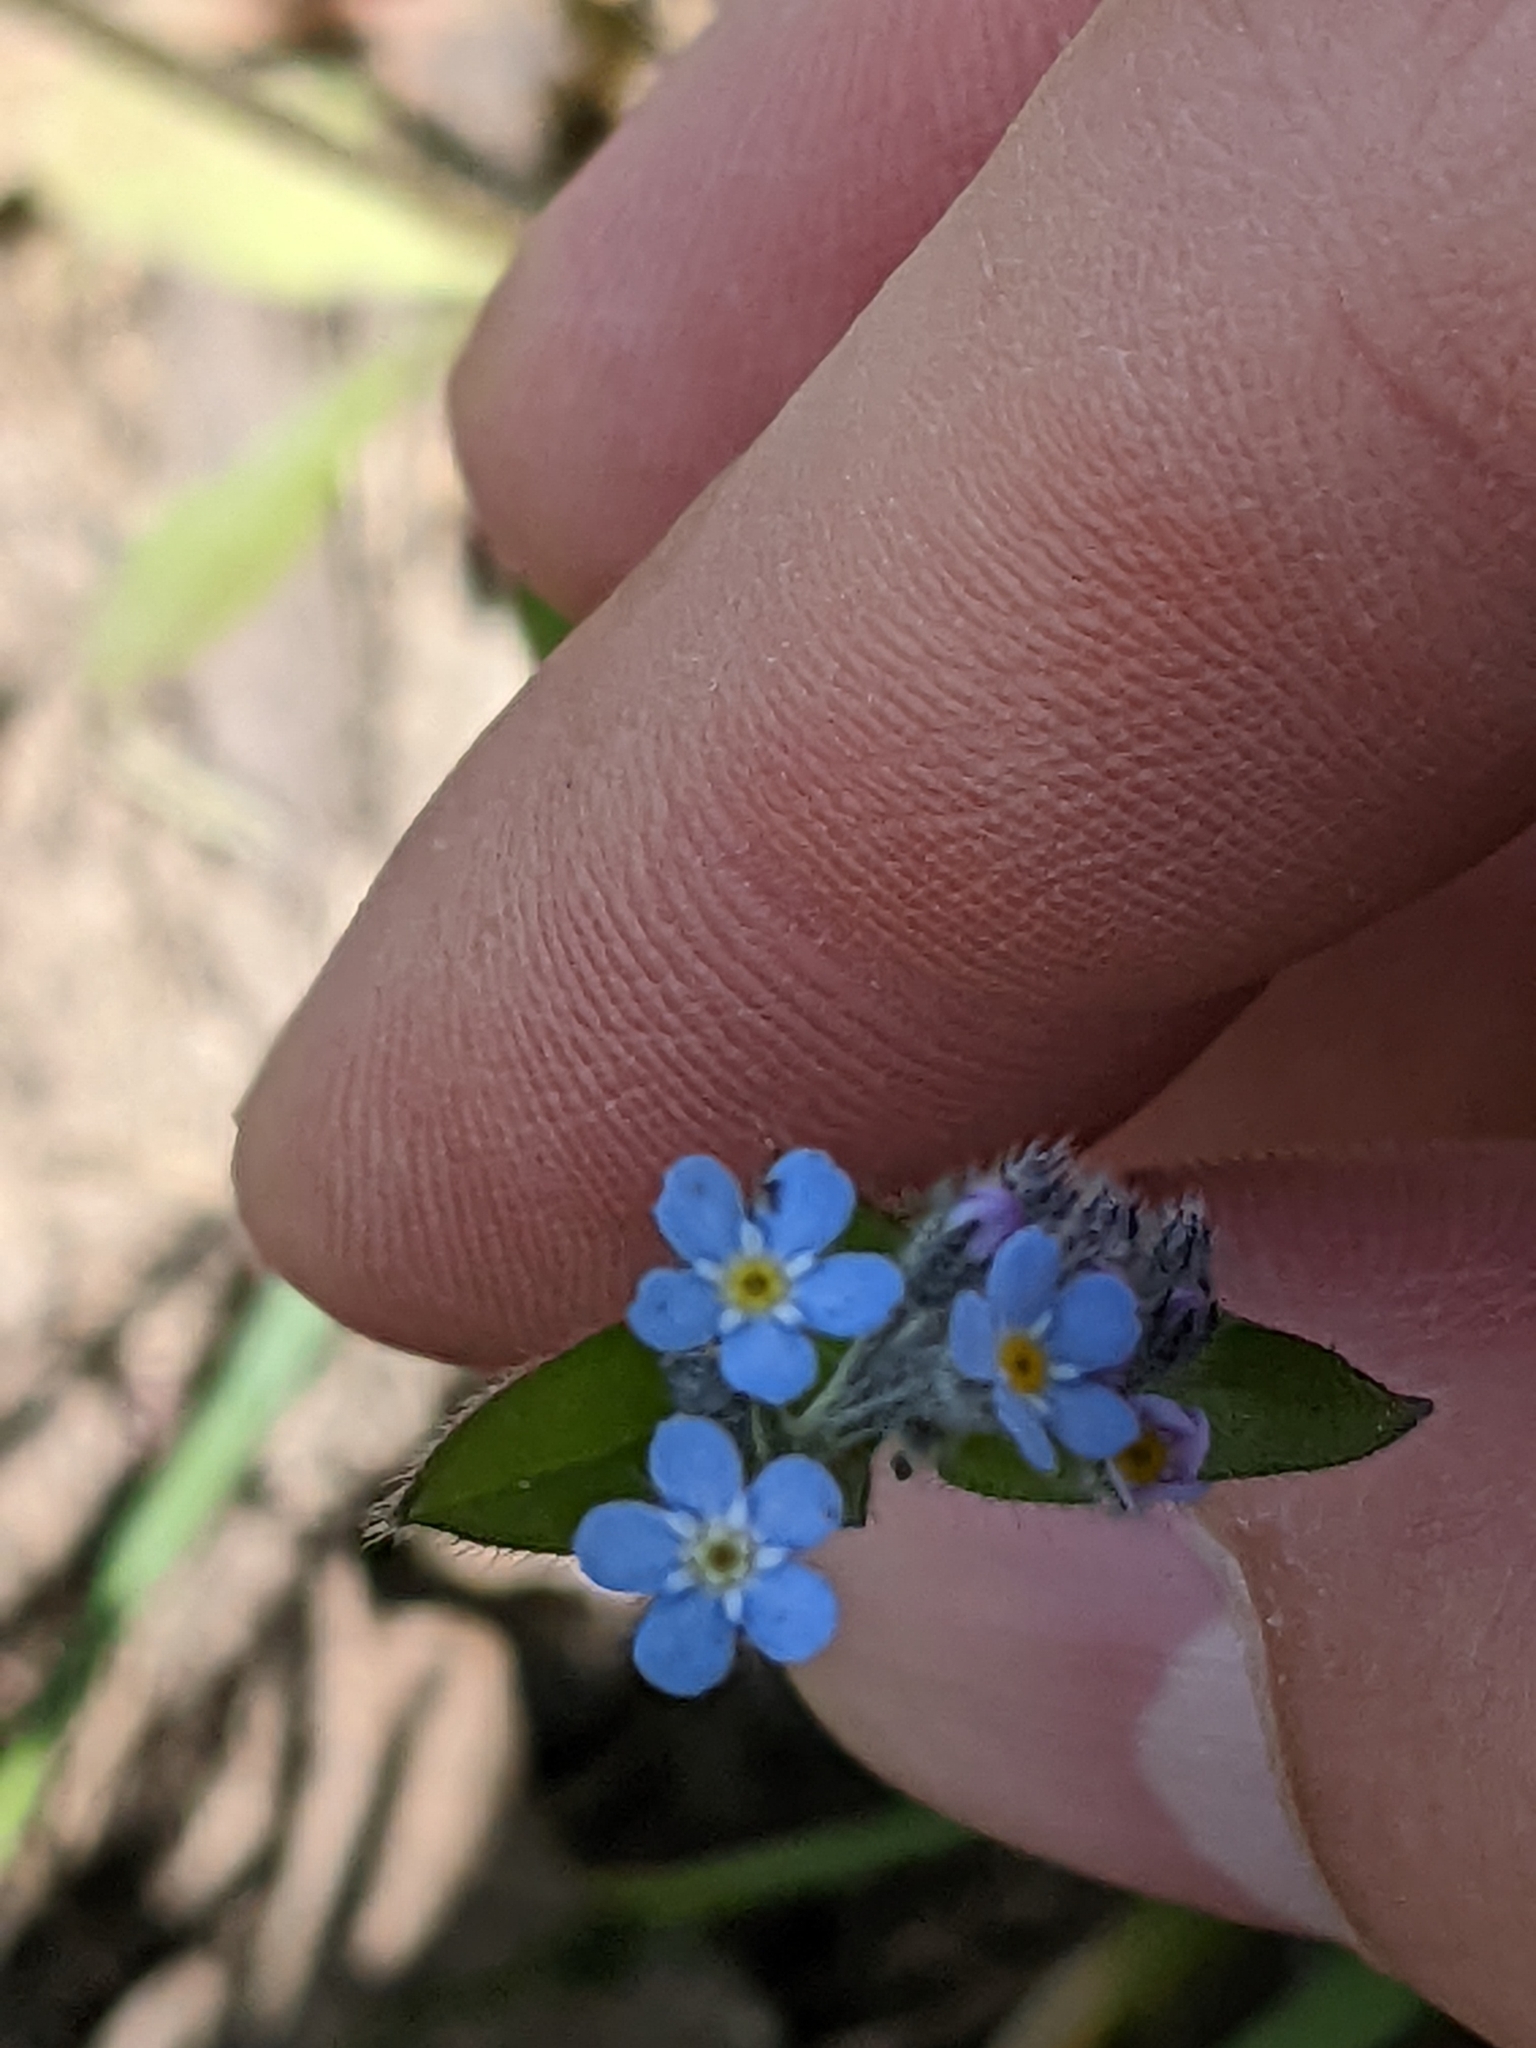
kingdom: Plantae
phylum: Tracheophyta
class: Magnoliopsida
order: Boraginales
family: Boraginaceae
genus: Myosotis
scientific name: Myosotis arvensis
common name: Field forget-me-not
